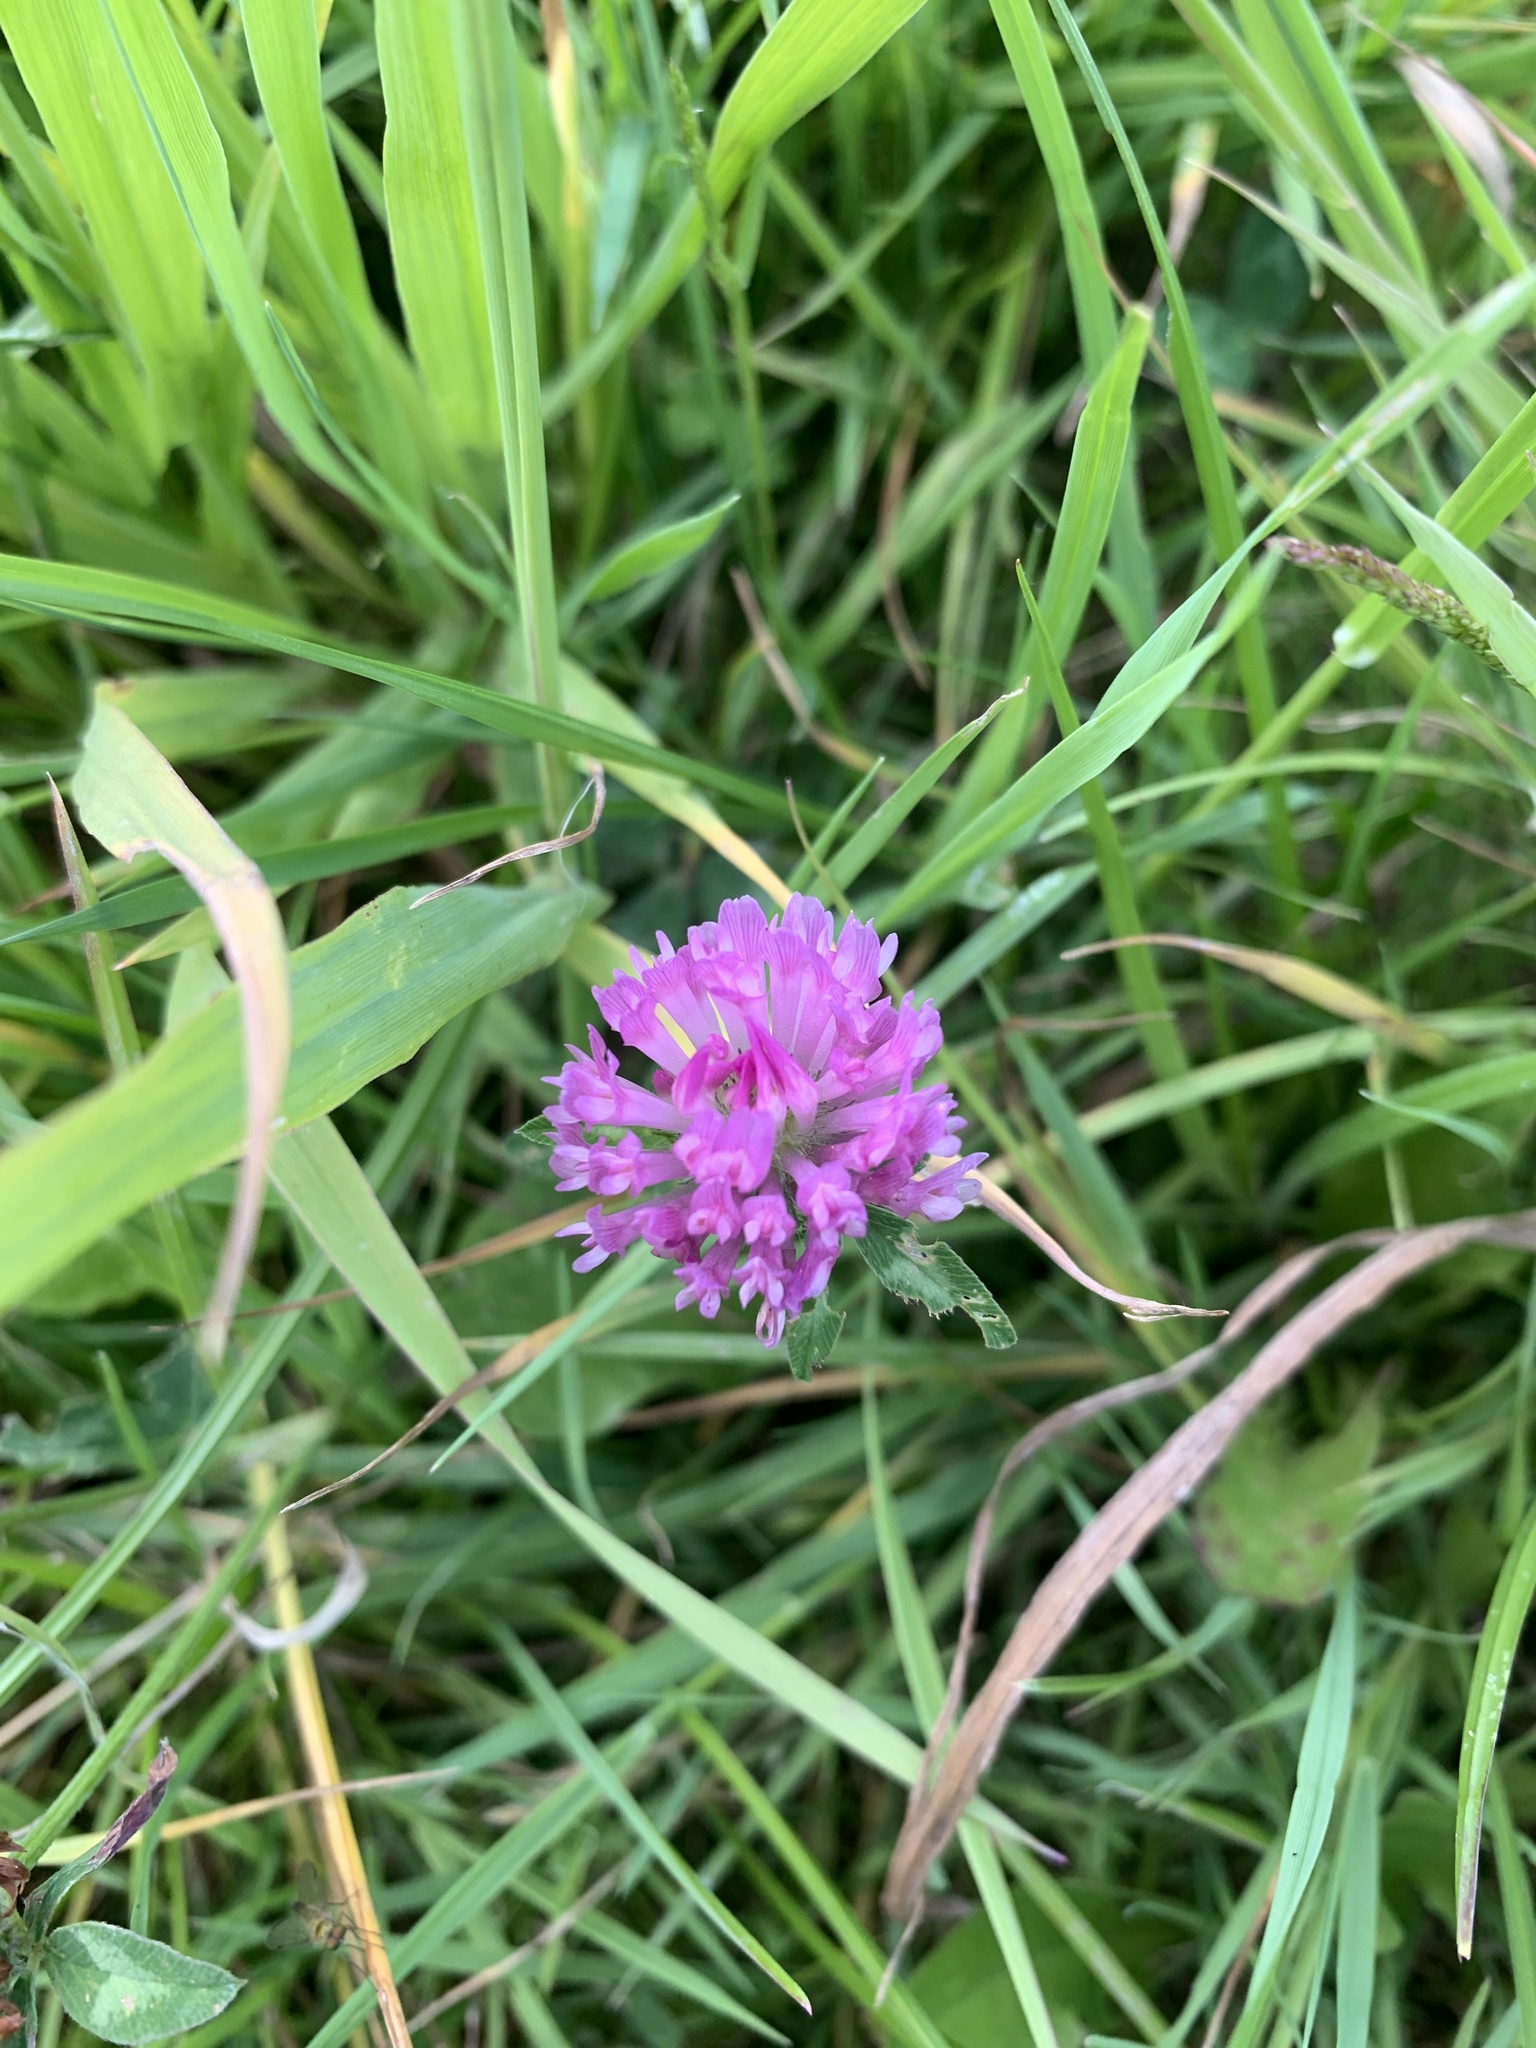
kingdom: Plantae
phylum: Tracheophyta
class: Magnoliopsida
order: Fabales
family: Fabaceae
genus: Trifolium
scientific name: Trifolium pratense
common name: Red clover
